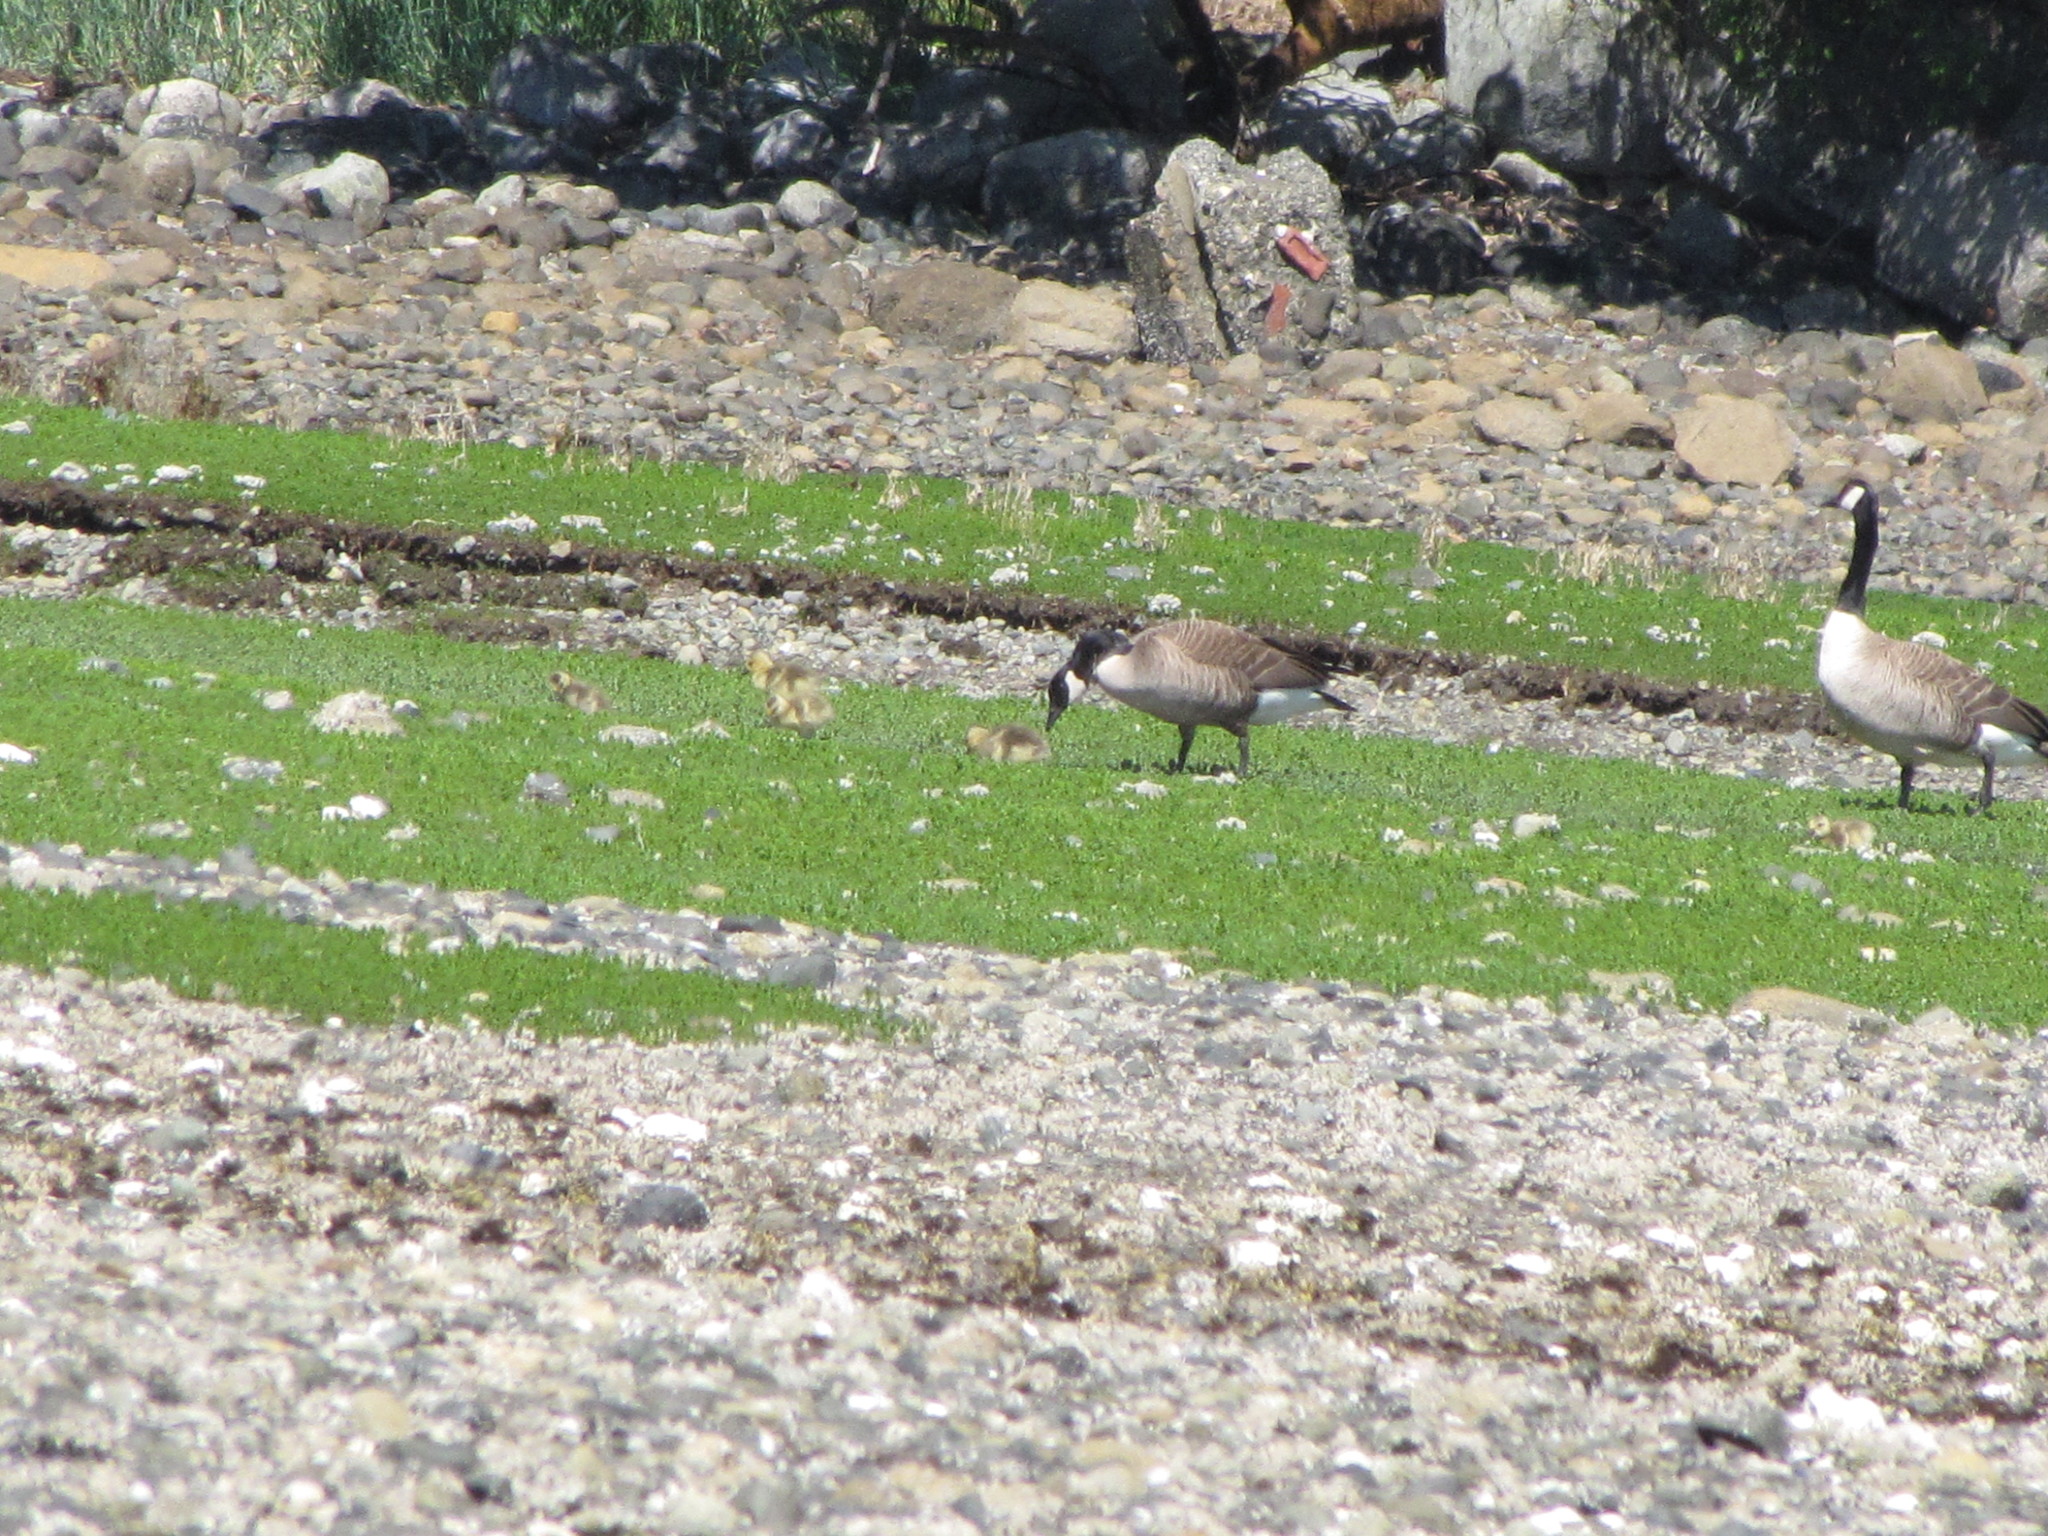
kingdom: Animalia
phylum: Chordata
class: Aves
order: Anseriformes
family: Anatidae
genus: Branta
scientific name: Branta canadensis
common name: Canada goose
